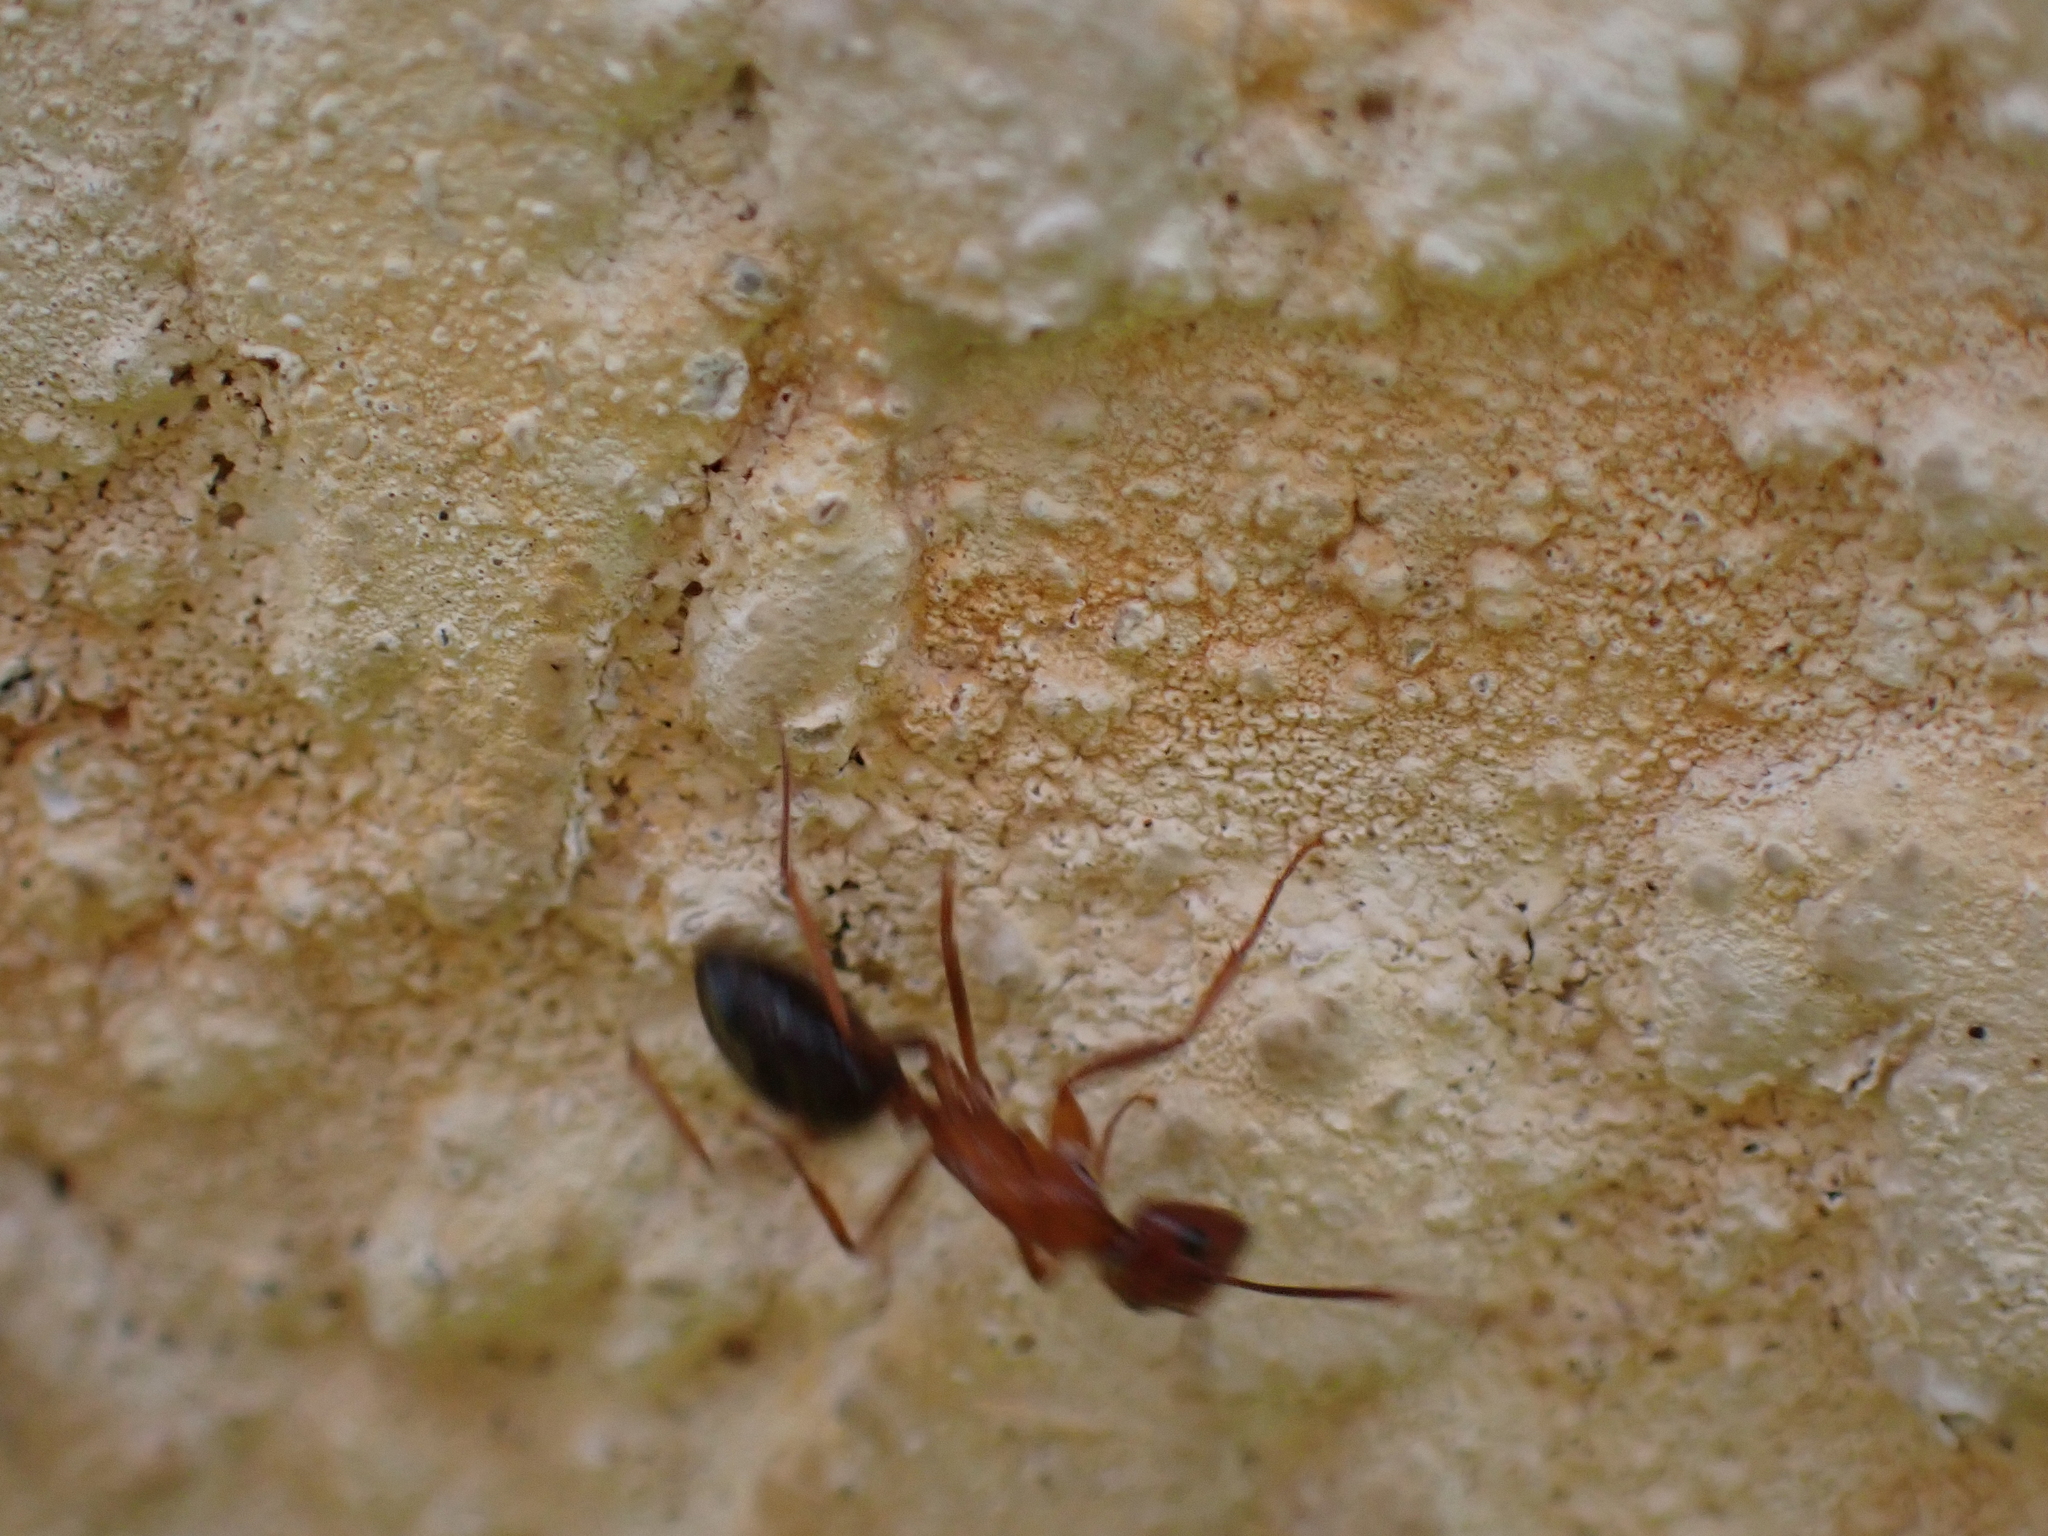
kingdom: Animalia
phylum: Arthropoda
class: Insecta
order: Hymenoptera
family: Formicidae
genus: Camponotus
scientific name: Camponotus floridanus
